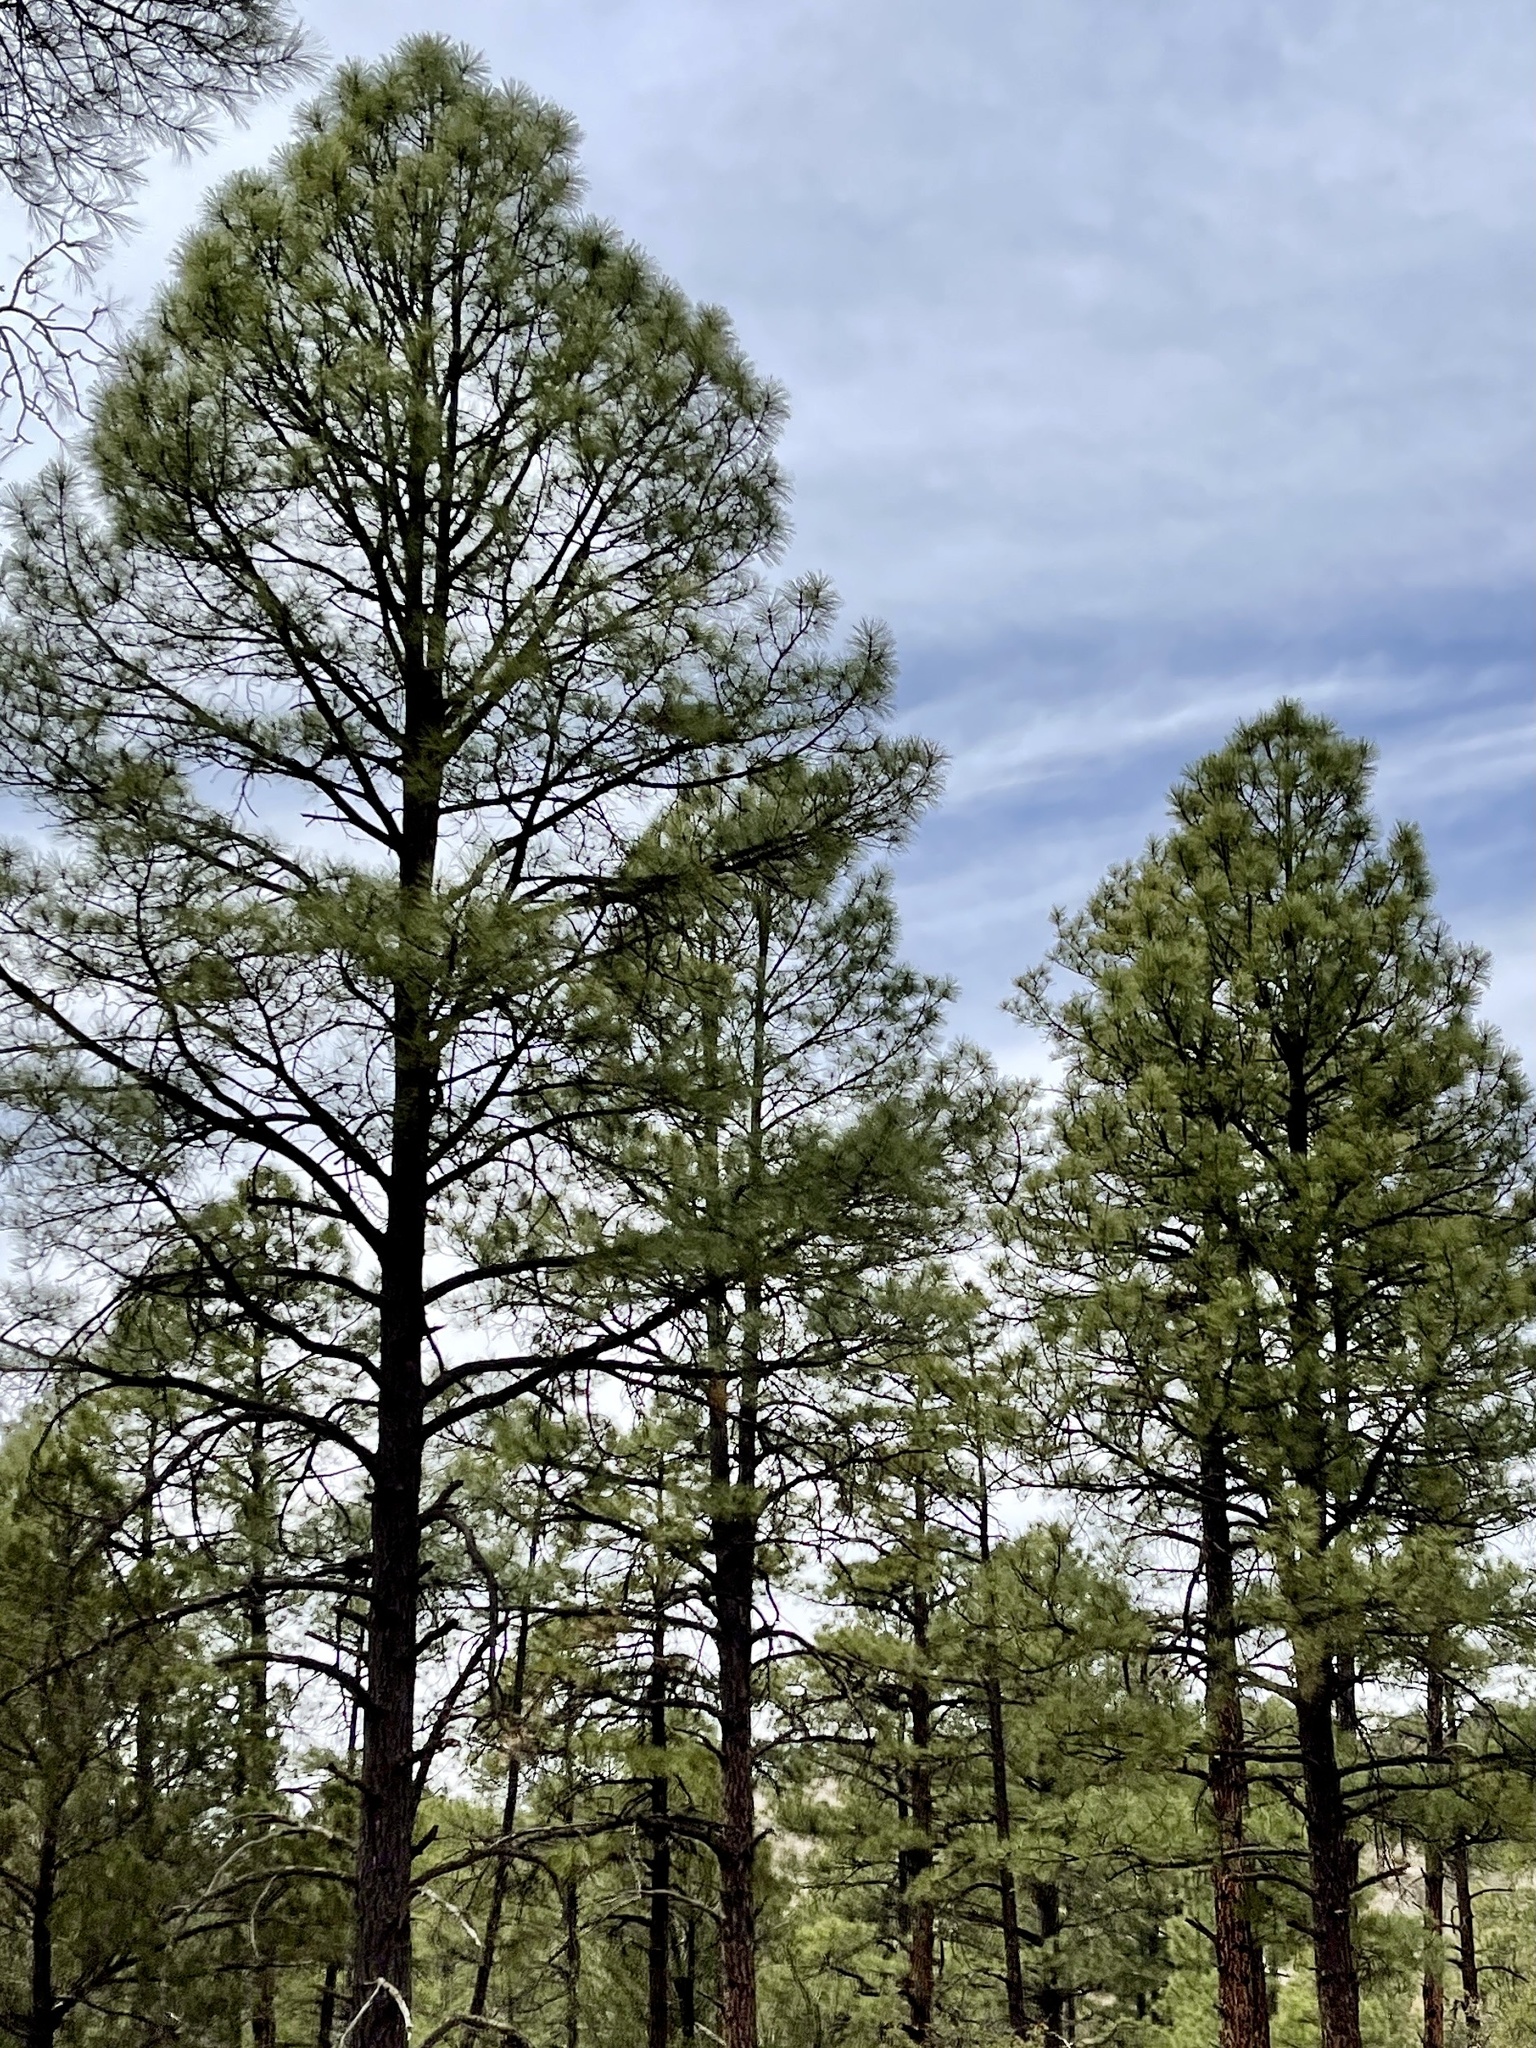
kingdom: Plantae
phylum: Tracheophyta
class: Pinopsida
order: Pinales
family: Pinaceae
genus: Pinus
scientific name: Pinus ponderosa
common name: Western yellow-pine
